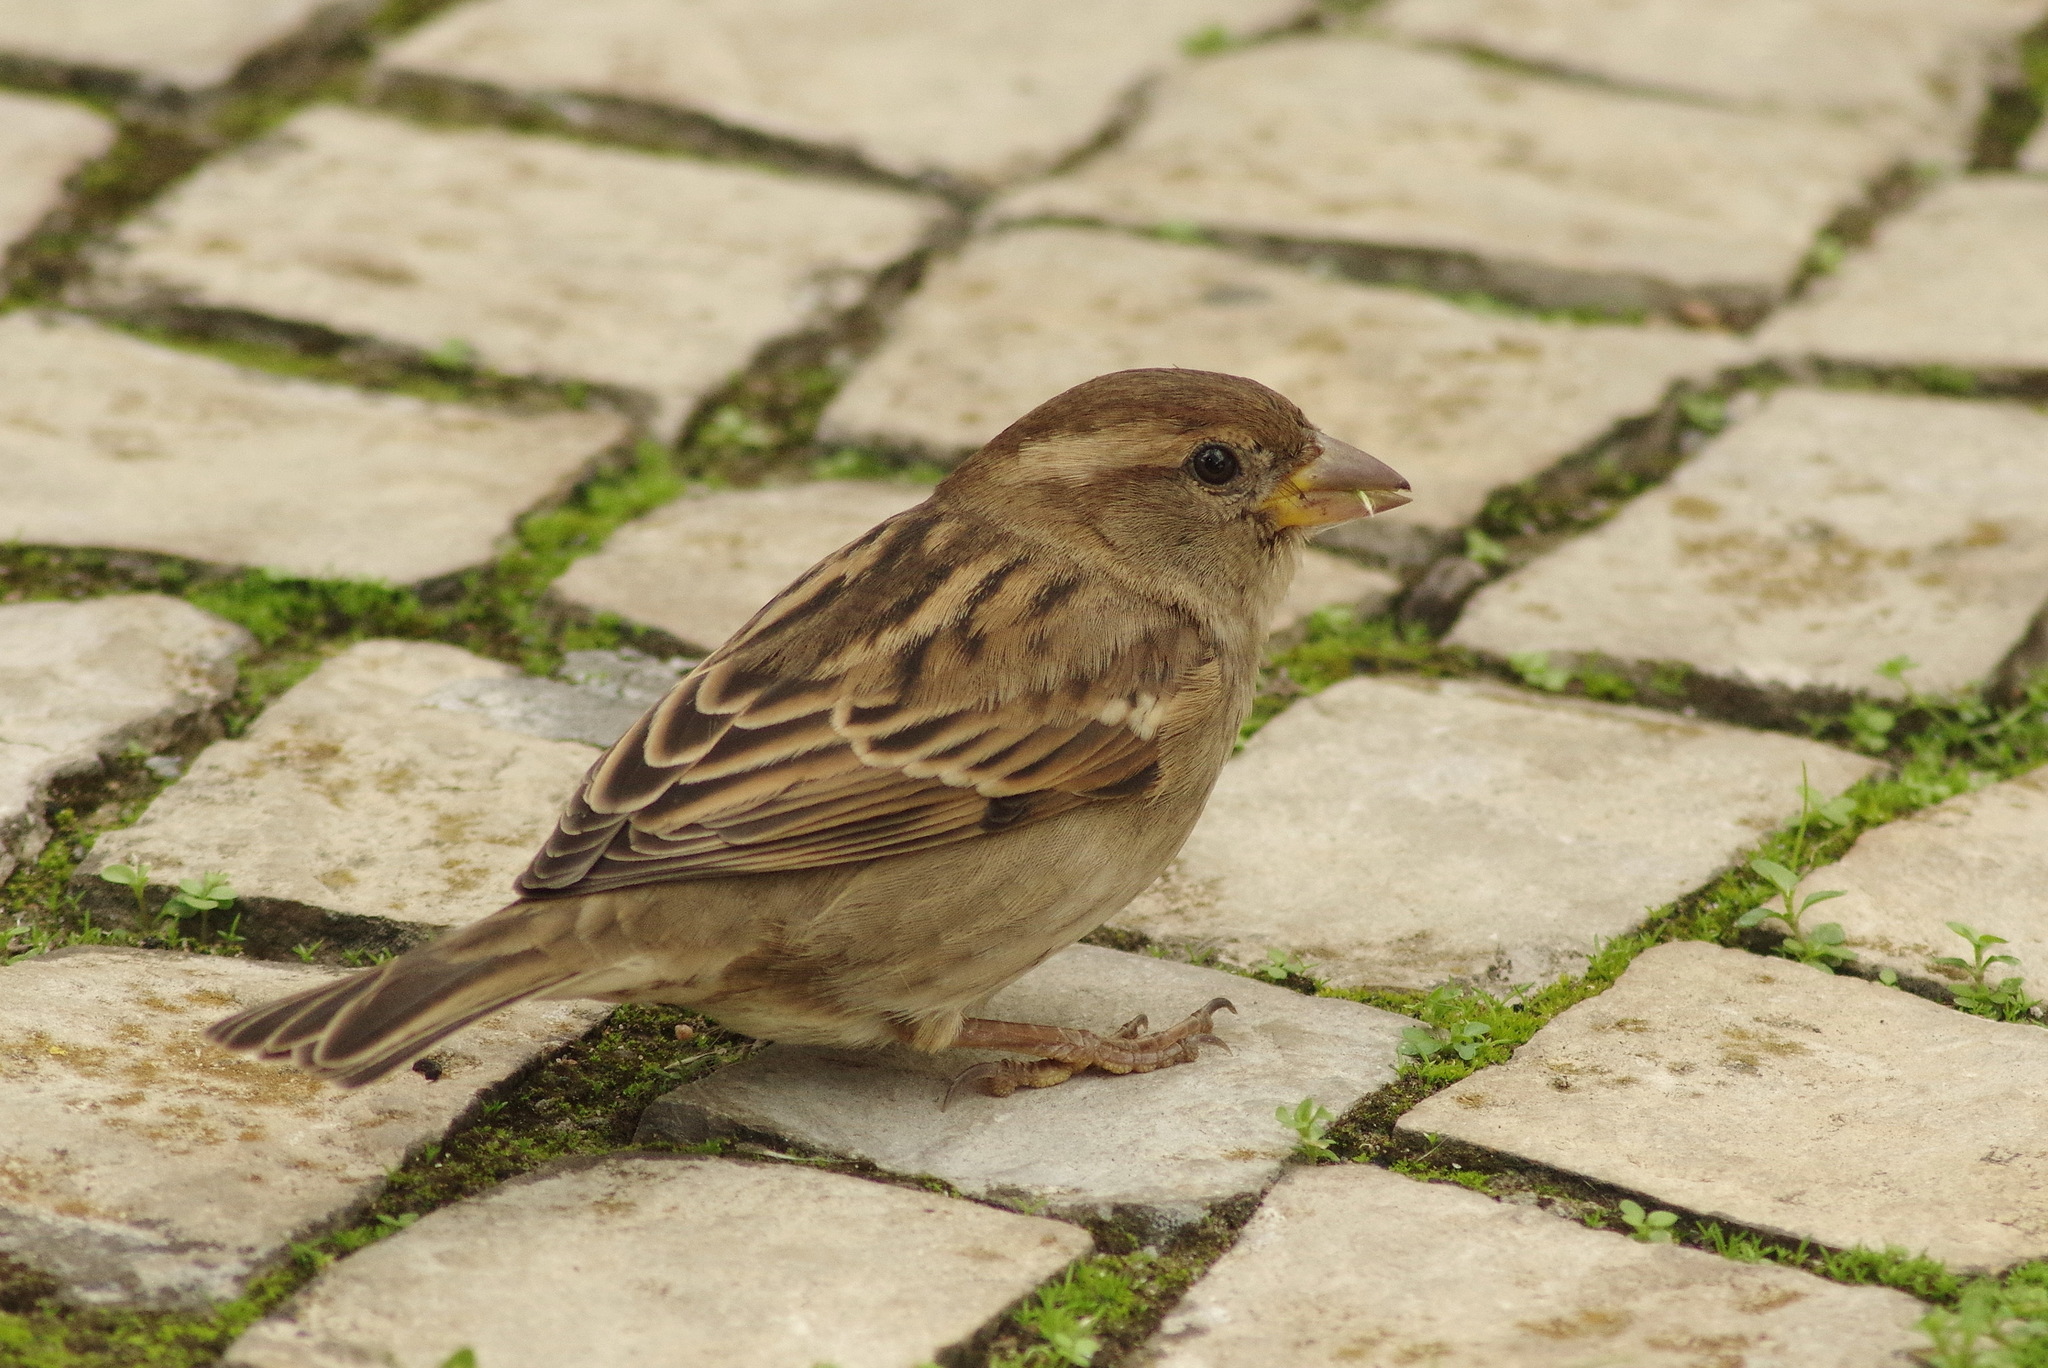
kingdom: Animalia
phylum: Chordata
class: Aves
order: Passeriformes
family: Passeridae
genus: Passer
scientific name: Passer domesticus
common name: House sparrow
